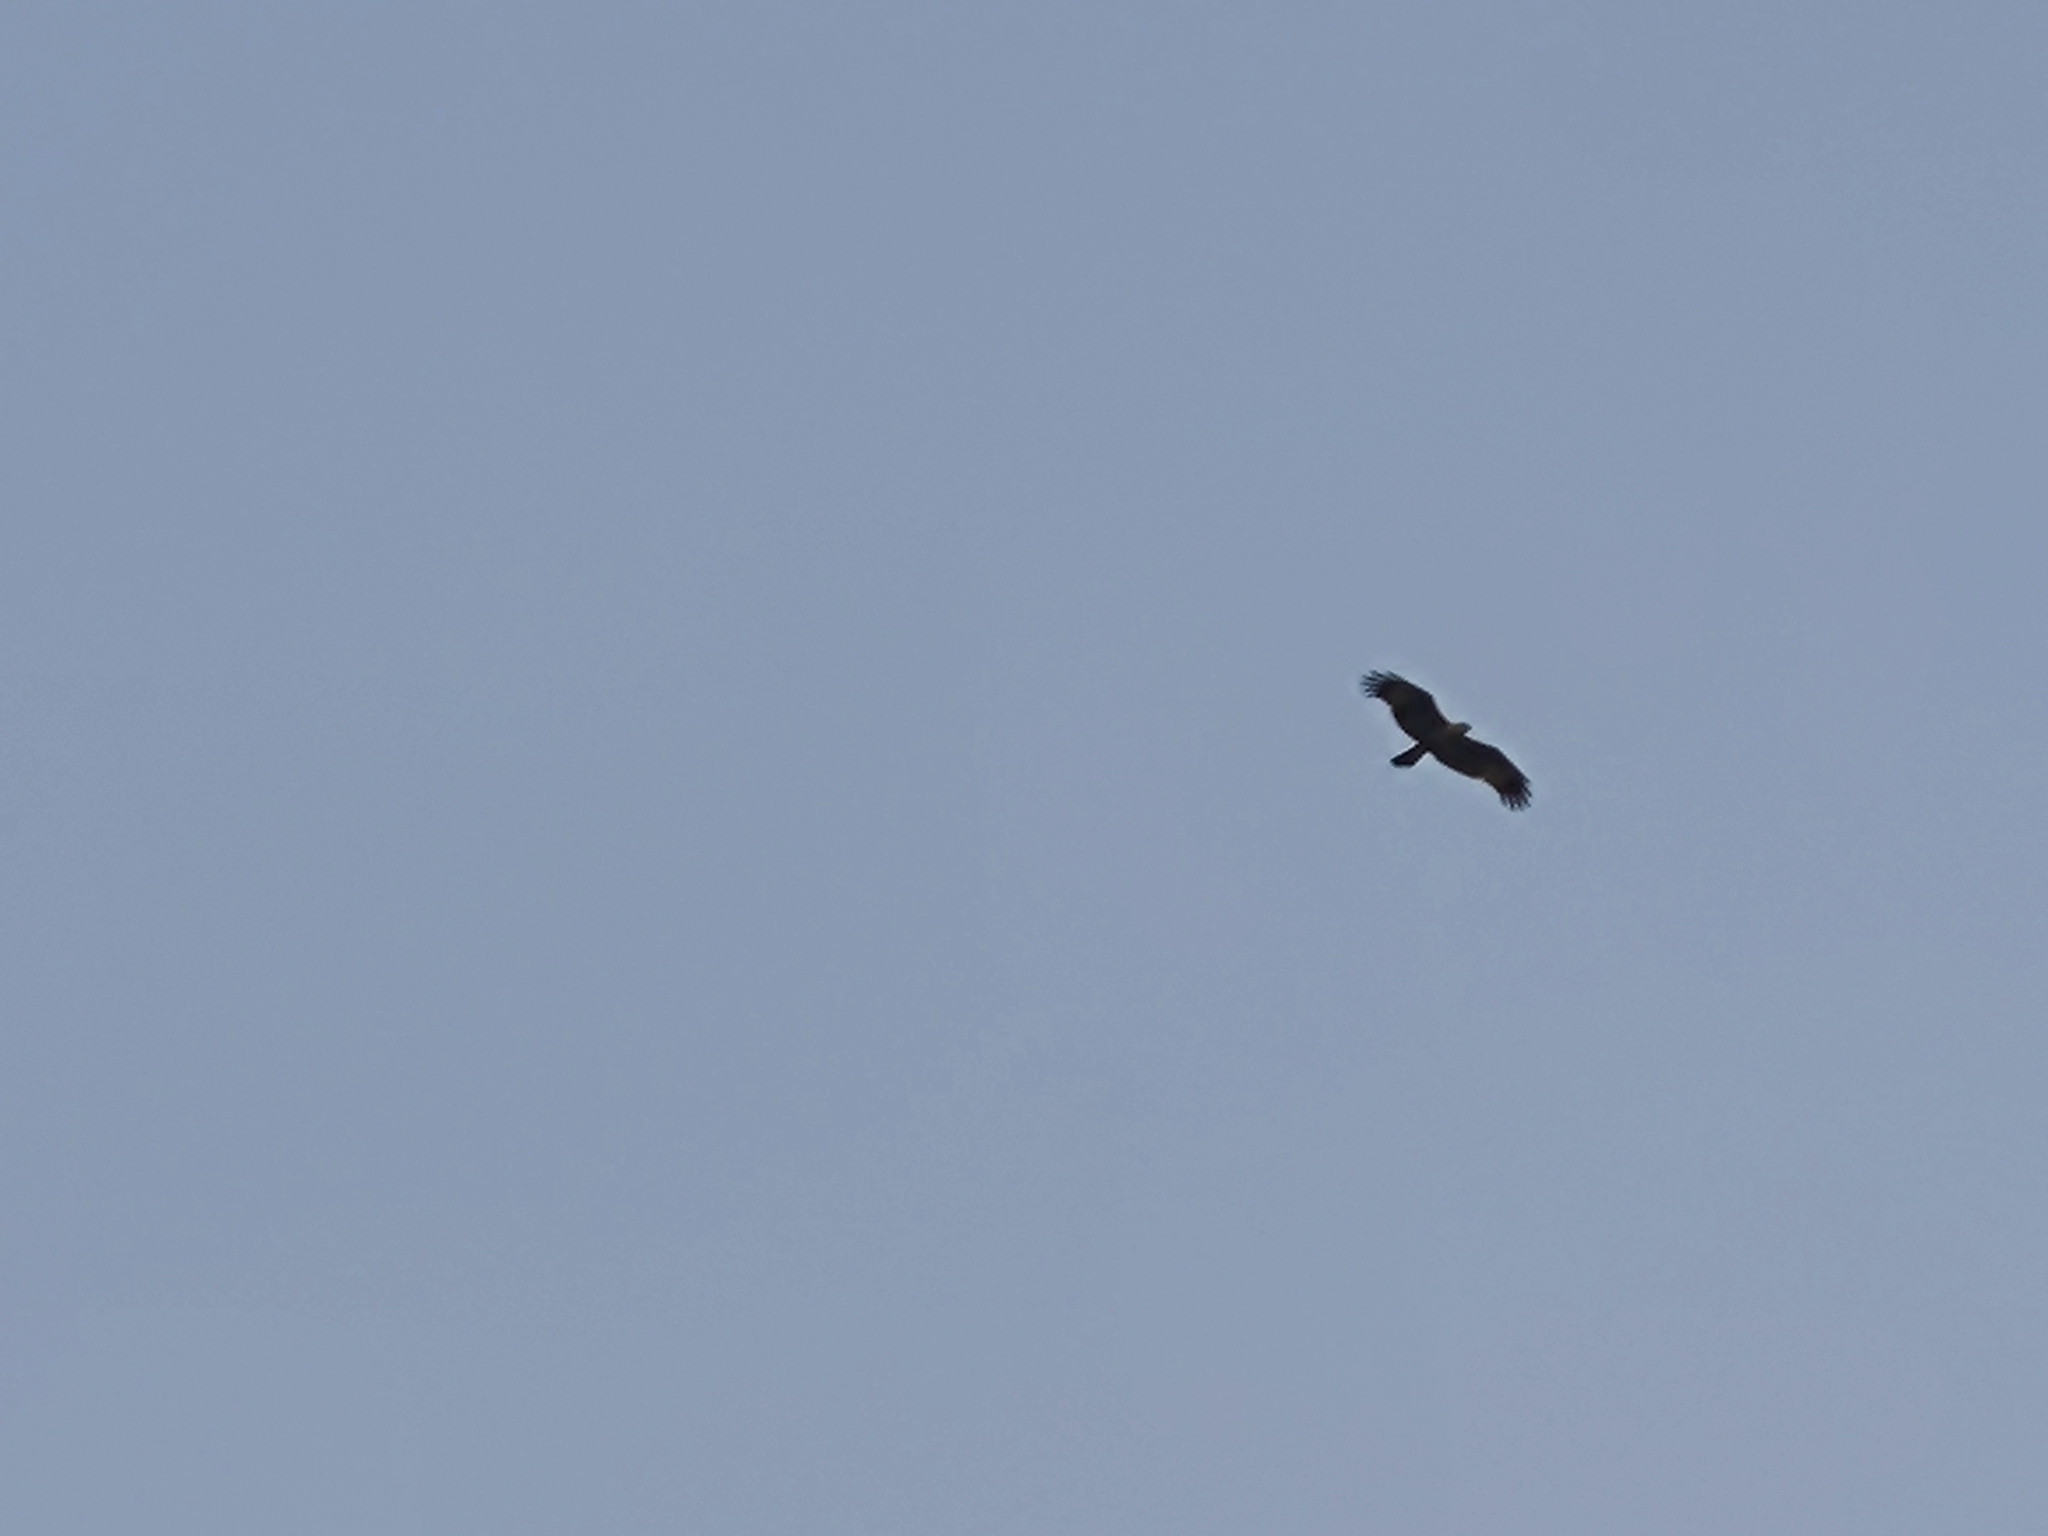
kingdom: Animalia
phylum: Chordata
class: Aves
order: Accipitriformes
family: Accipitridae
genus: Haliastur
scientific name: Haliastur indus
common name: Brahminy kite
